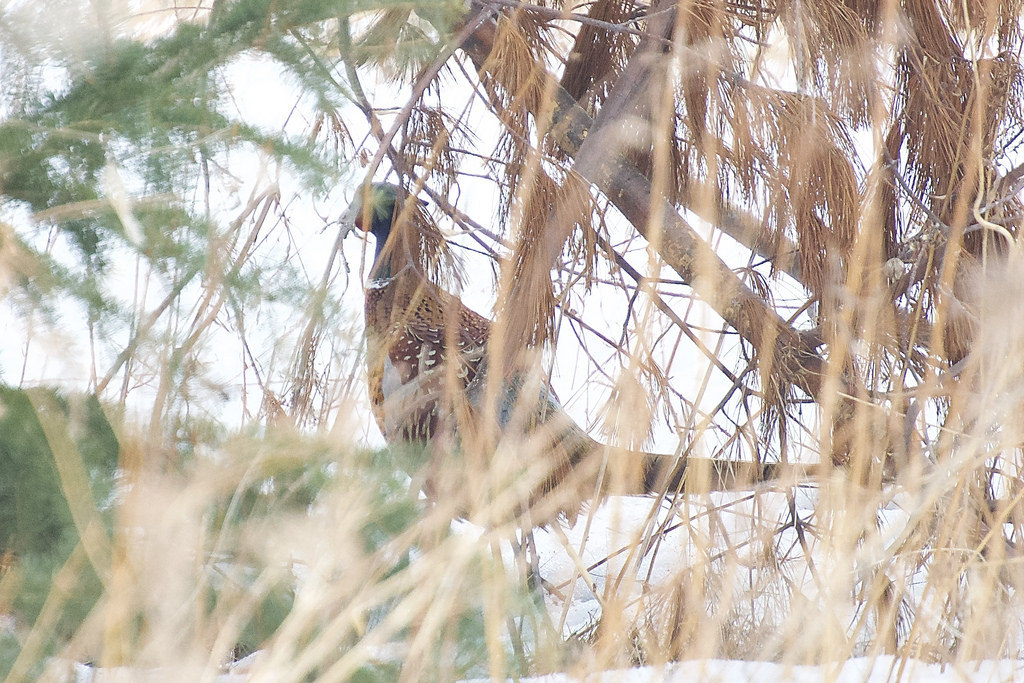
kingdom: Animalia
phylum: Chordata
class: Aves
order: Galliformes
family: Phasianidae
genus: Phasianus
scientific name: Phasianus colchicus
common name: Common pheasant
